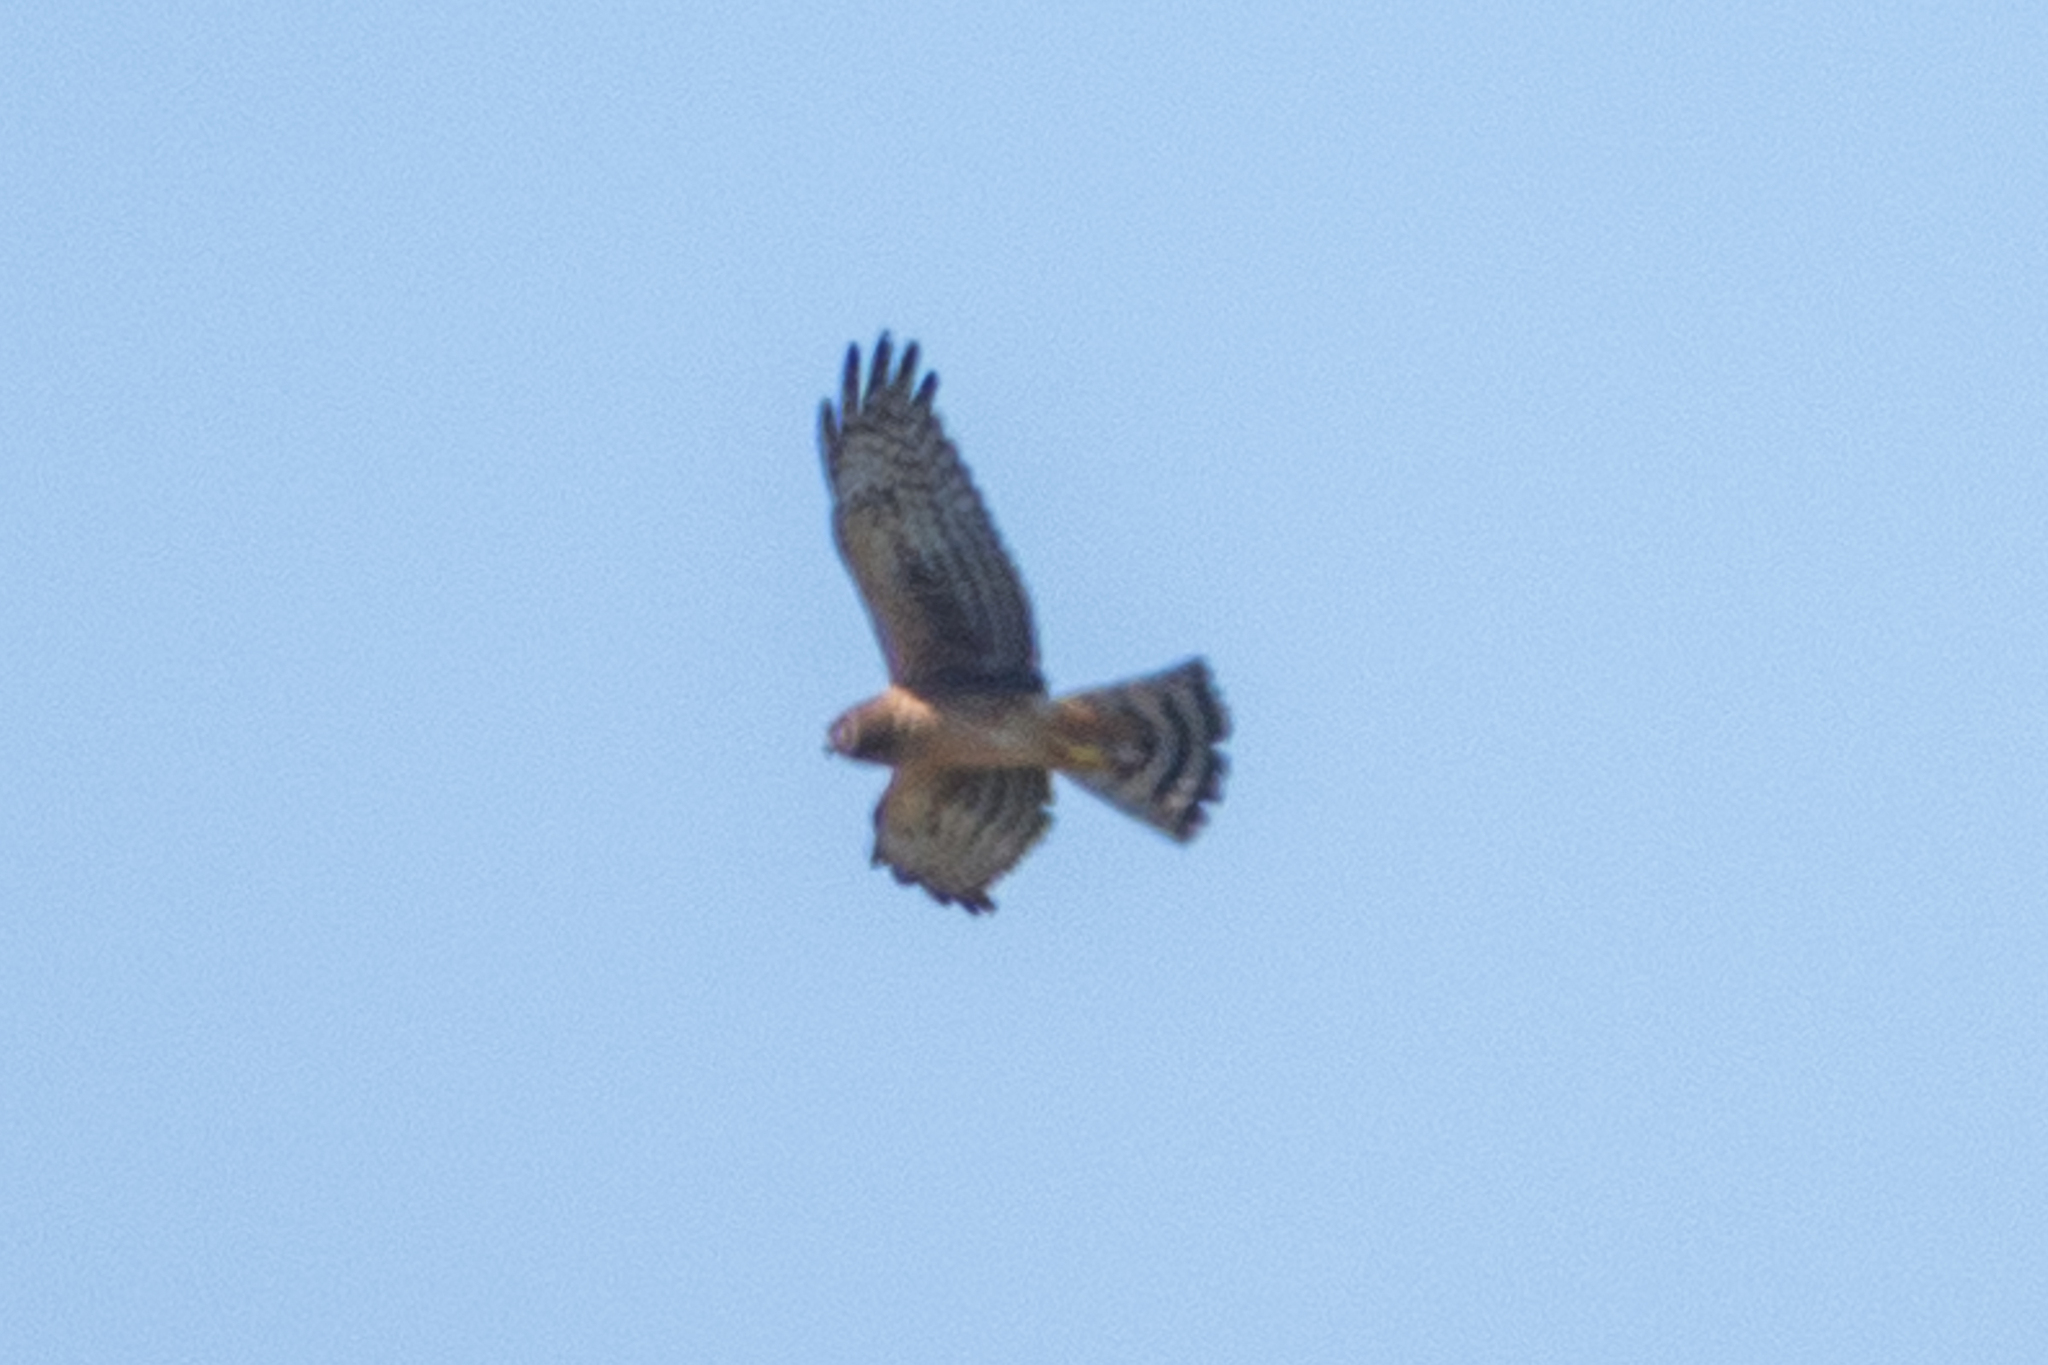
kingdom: Animalia
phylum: Chordata
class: Aves
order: Accipitriformes
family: Accipitridae
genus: Circus
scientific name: Circus cyaneus
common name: Hen harrier
